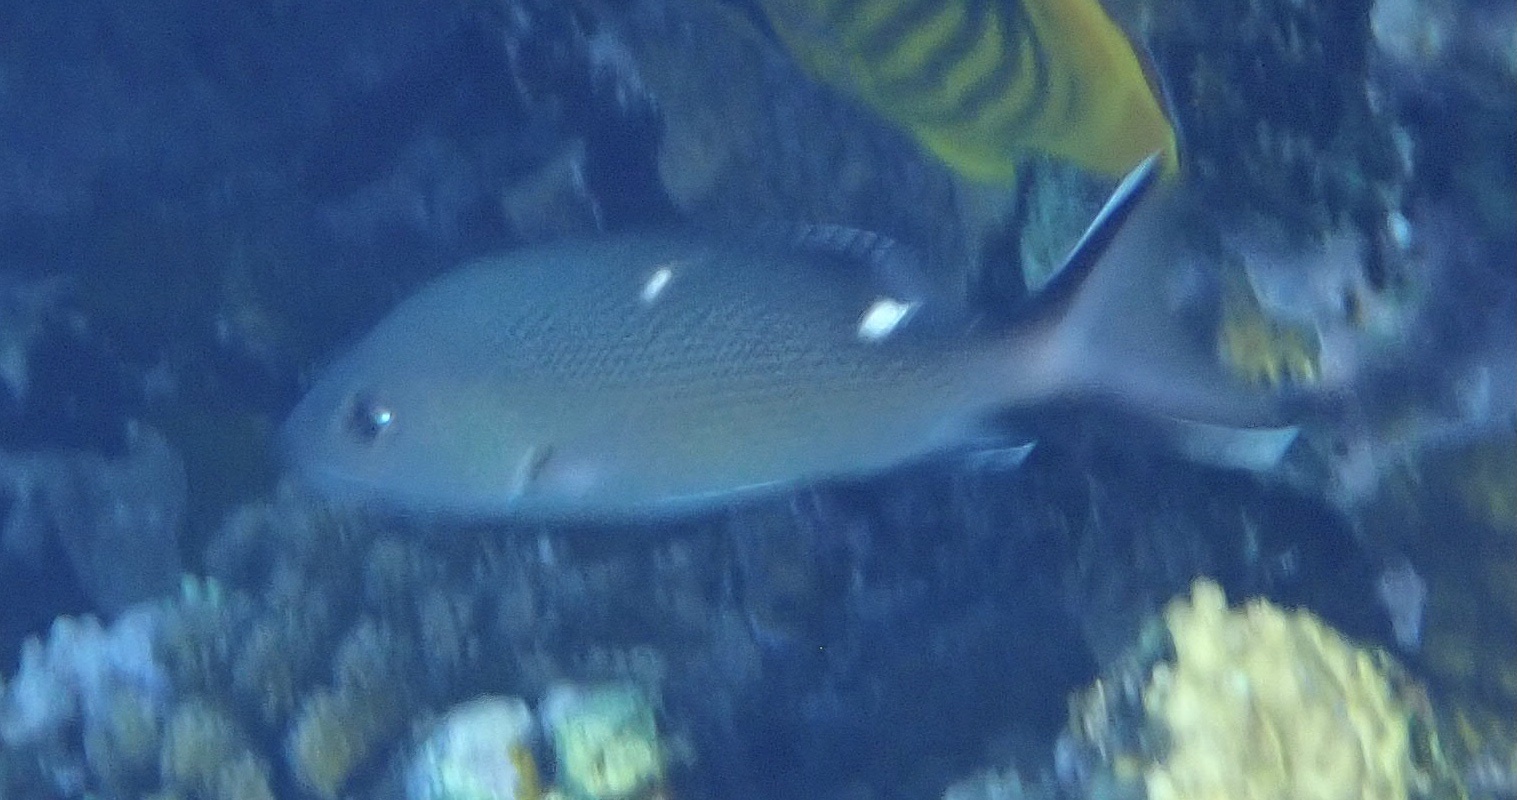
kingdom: Animalia
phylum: Chordata
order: Perciformes
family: Lutjanidae
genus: Lutjanus
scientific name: Lutjanus bohar
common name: Red bass
